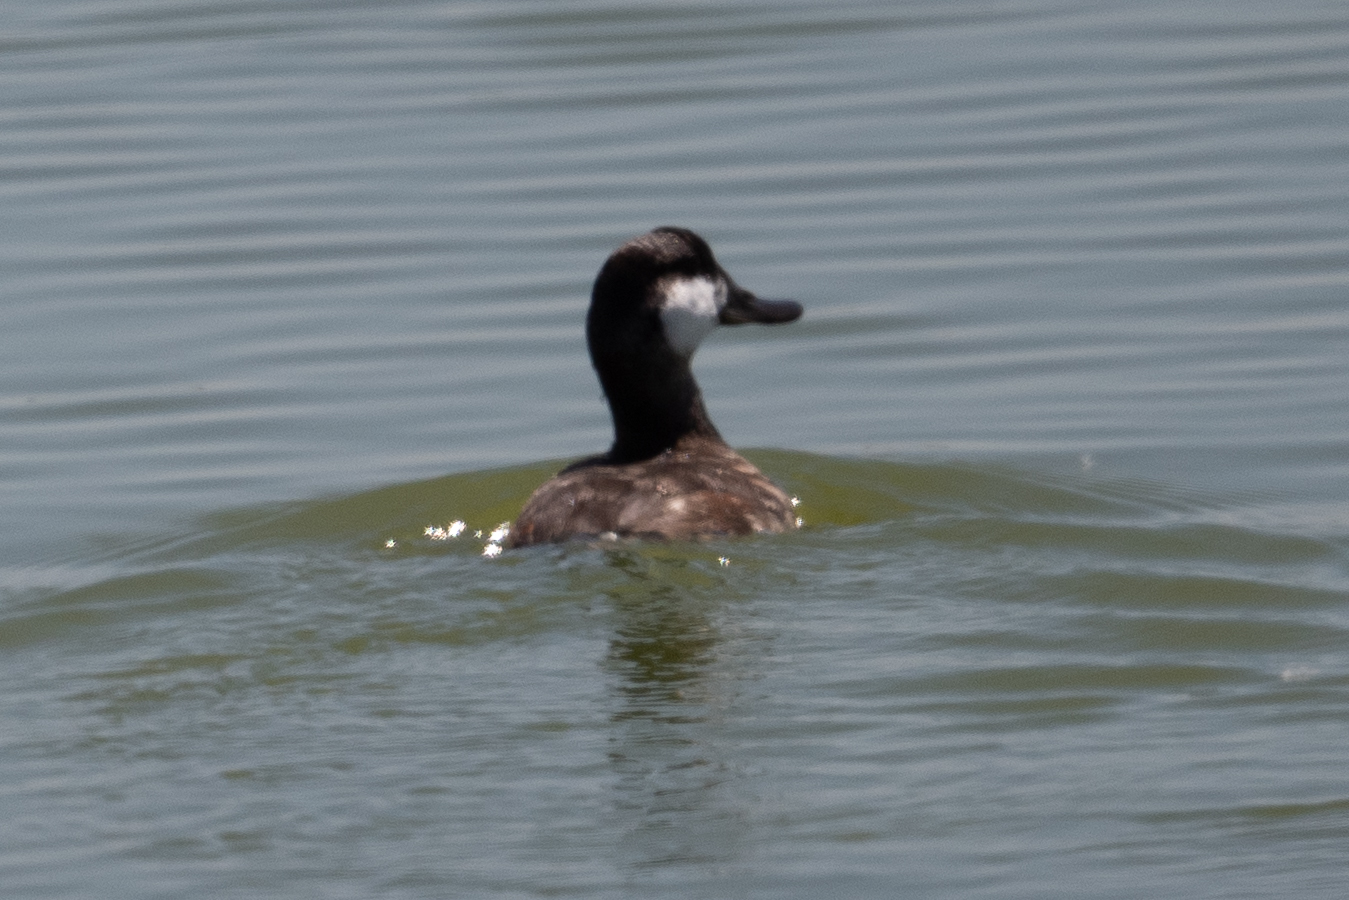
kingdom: Animalia
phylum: Chordata
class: Aves
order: Anseriformes
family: Anatidae
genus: Oxyura
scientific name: Oxyura jamaicensis
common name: Ruddy duck
